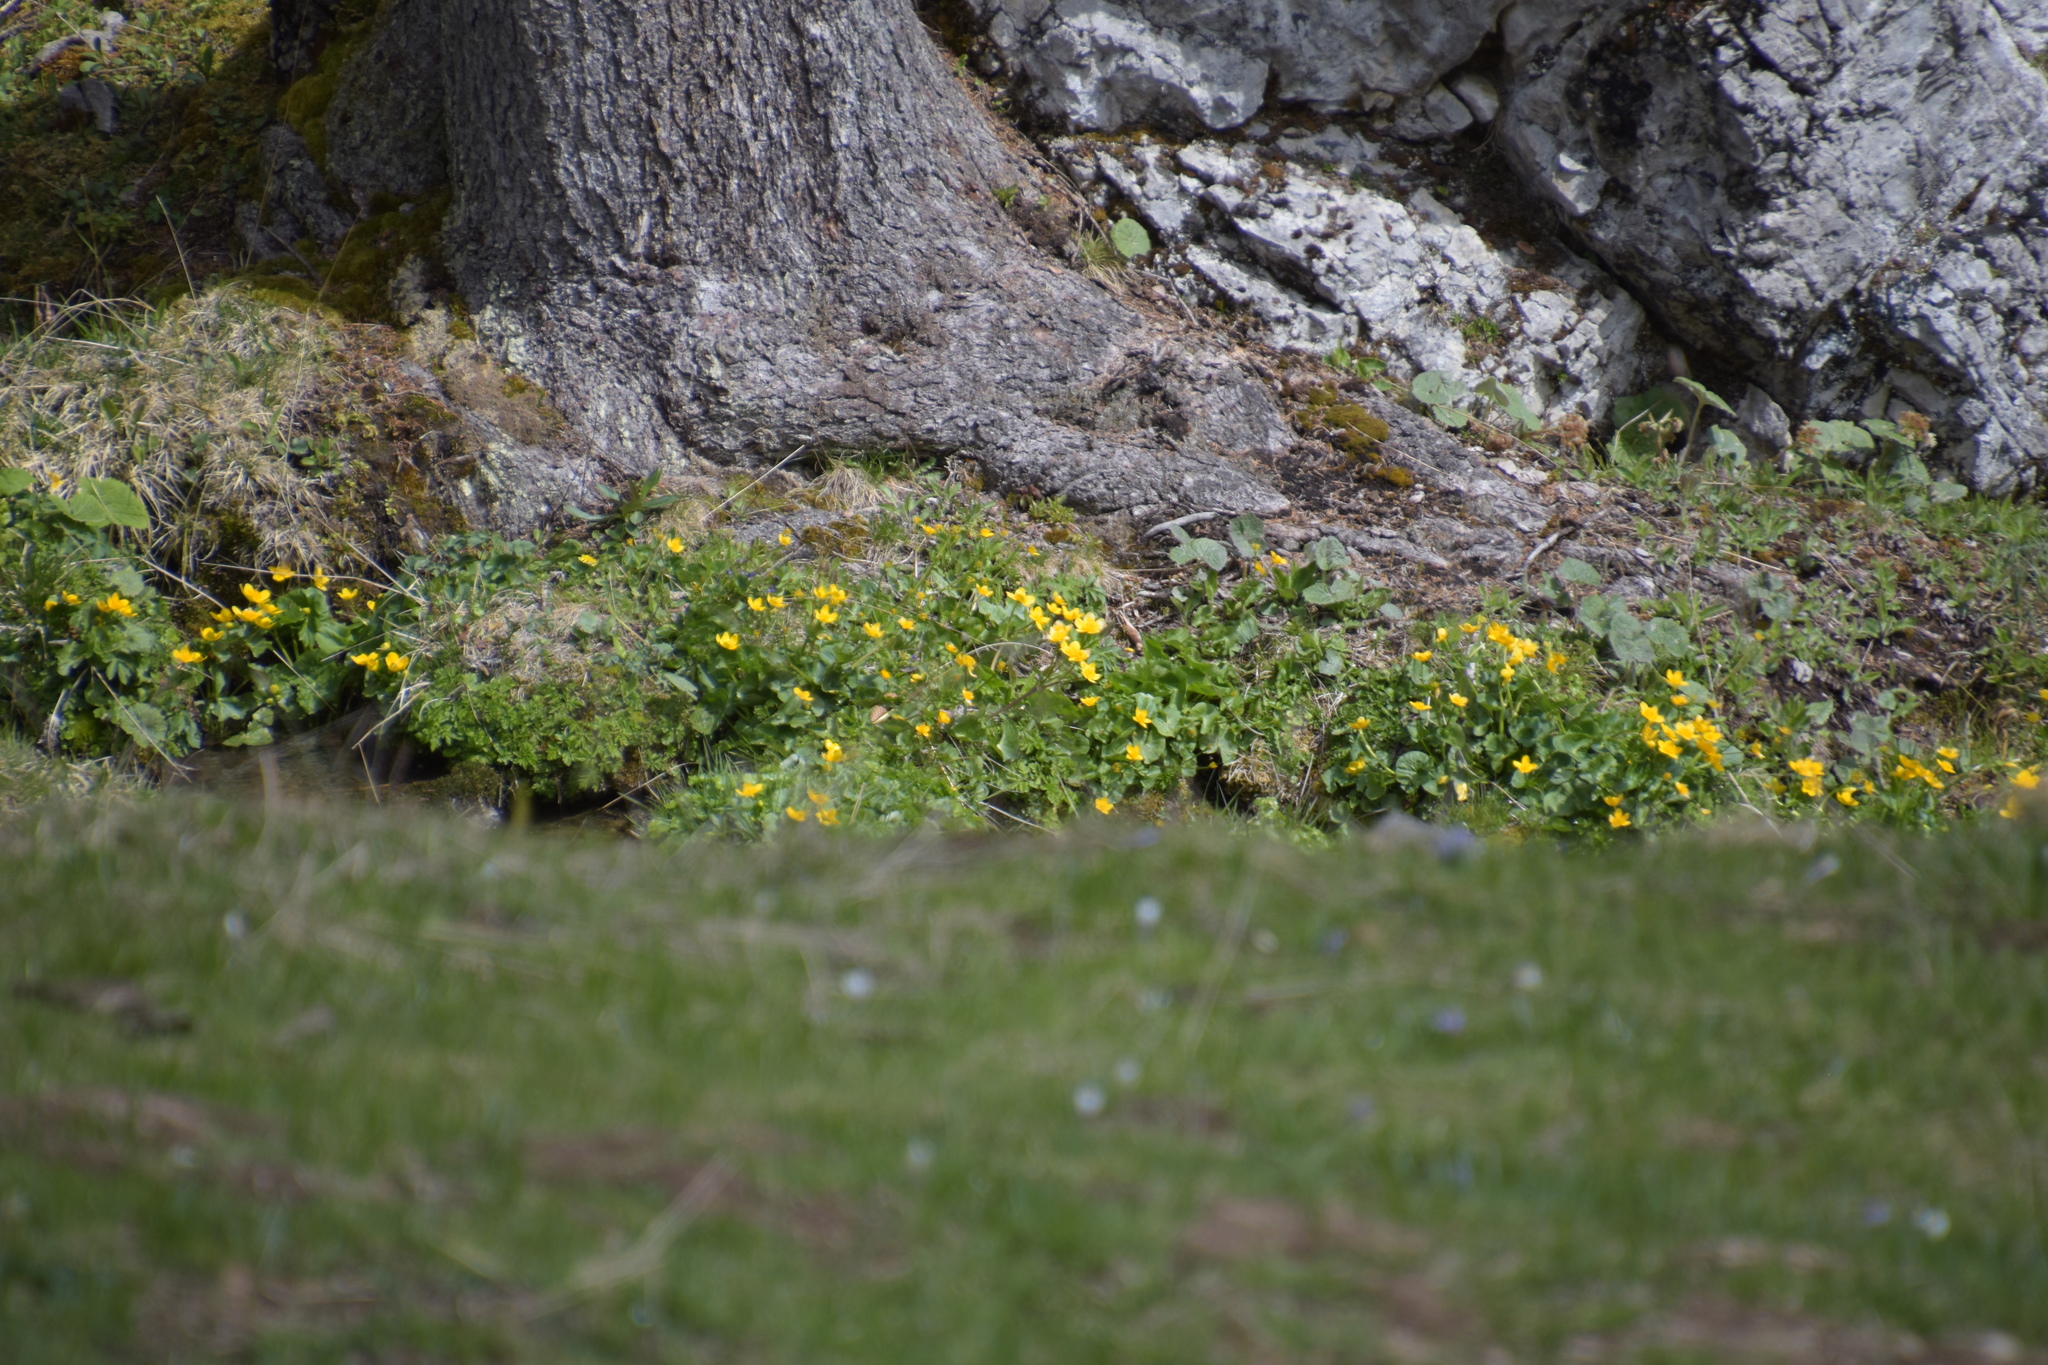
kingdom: Plantae
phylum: Tracheophyta
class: Magnoliopsida
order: Ranunculales
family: Ranunculaceae
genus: Caltha
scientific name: Caltha palustris
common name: Marsh marigold
